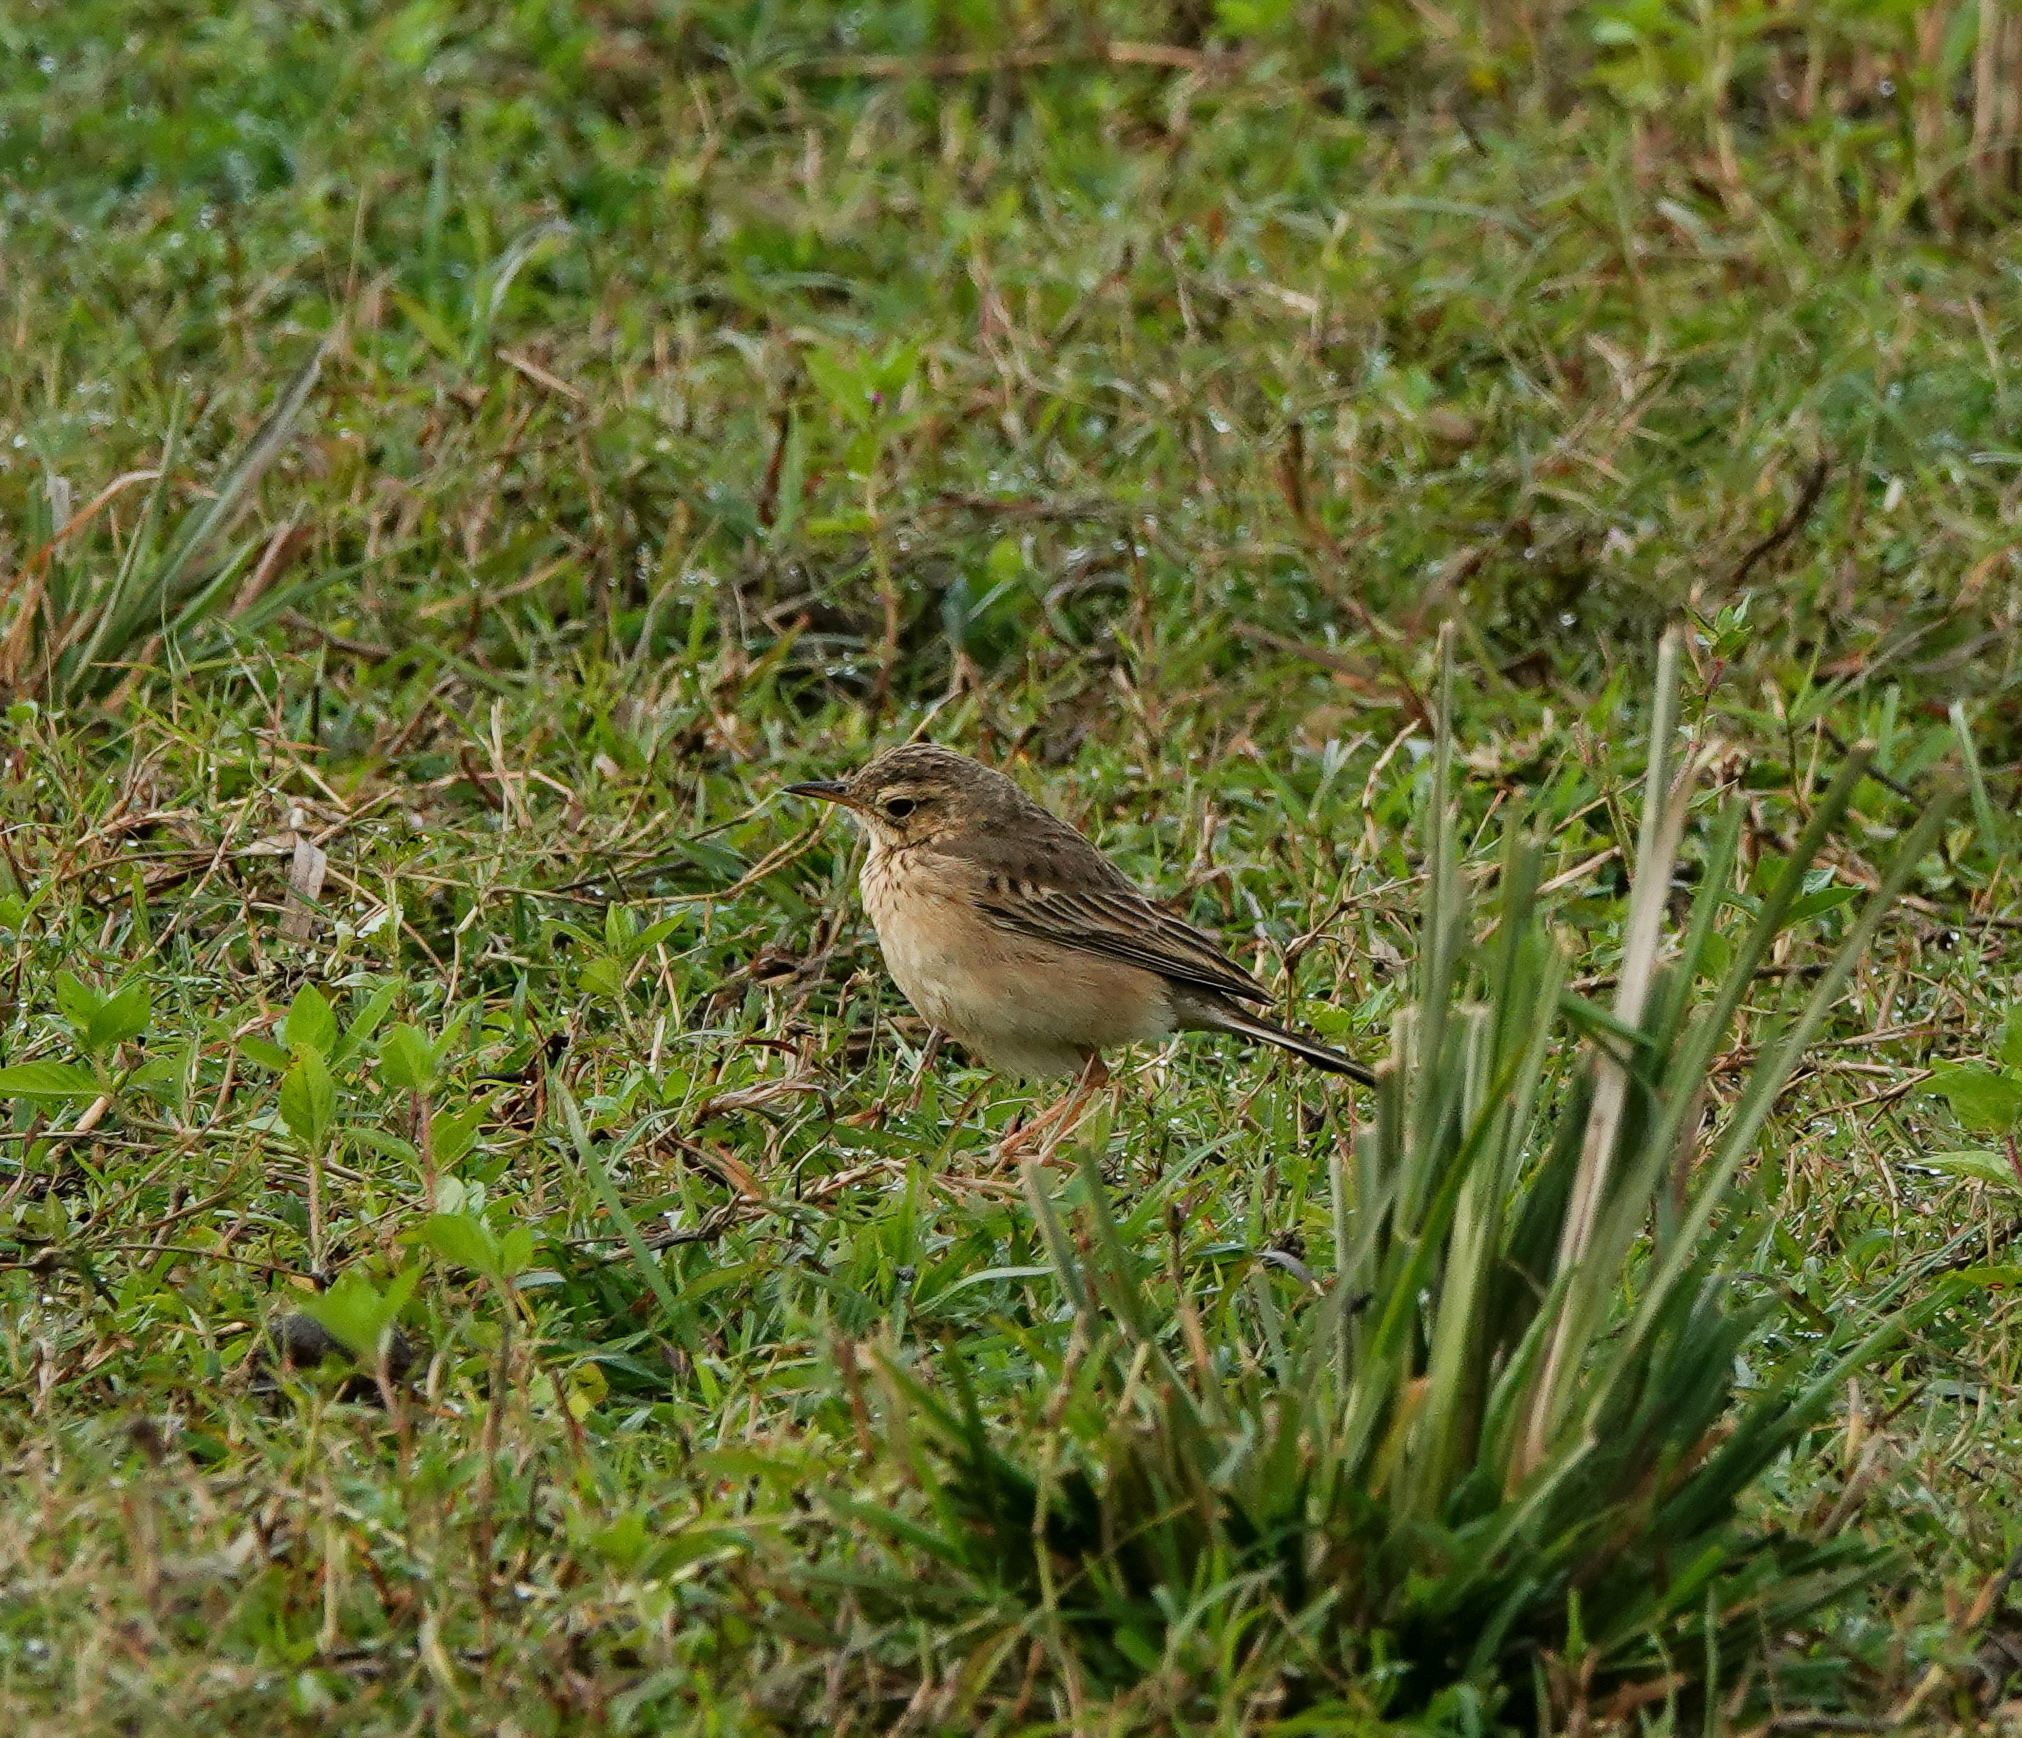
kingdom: Animalia
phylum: Chordata
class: Aves
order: Passeriformes
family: Motacillidae
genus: Anthus
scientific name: Anthus rufulus
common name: Paddyfield pipit
